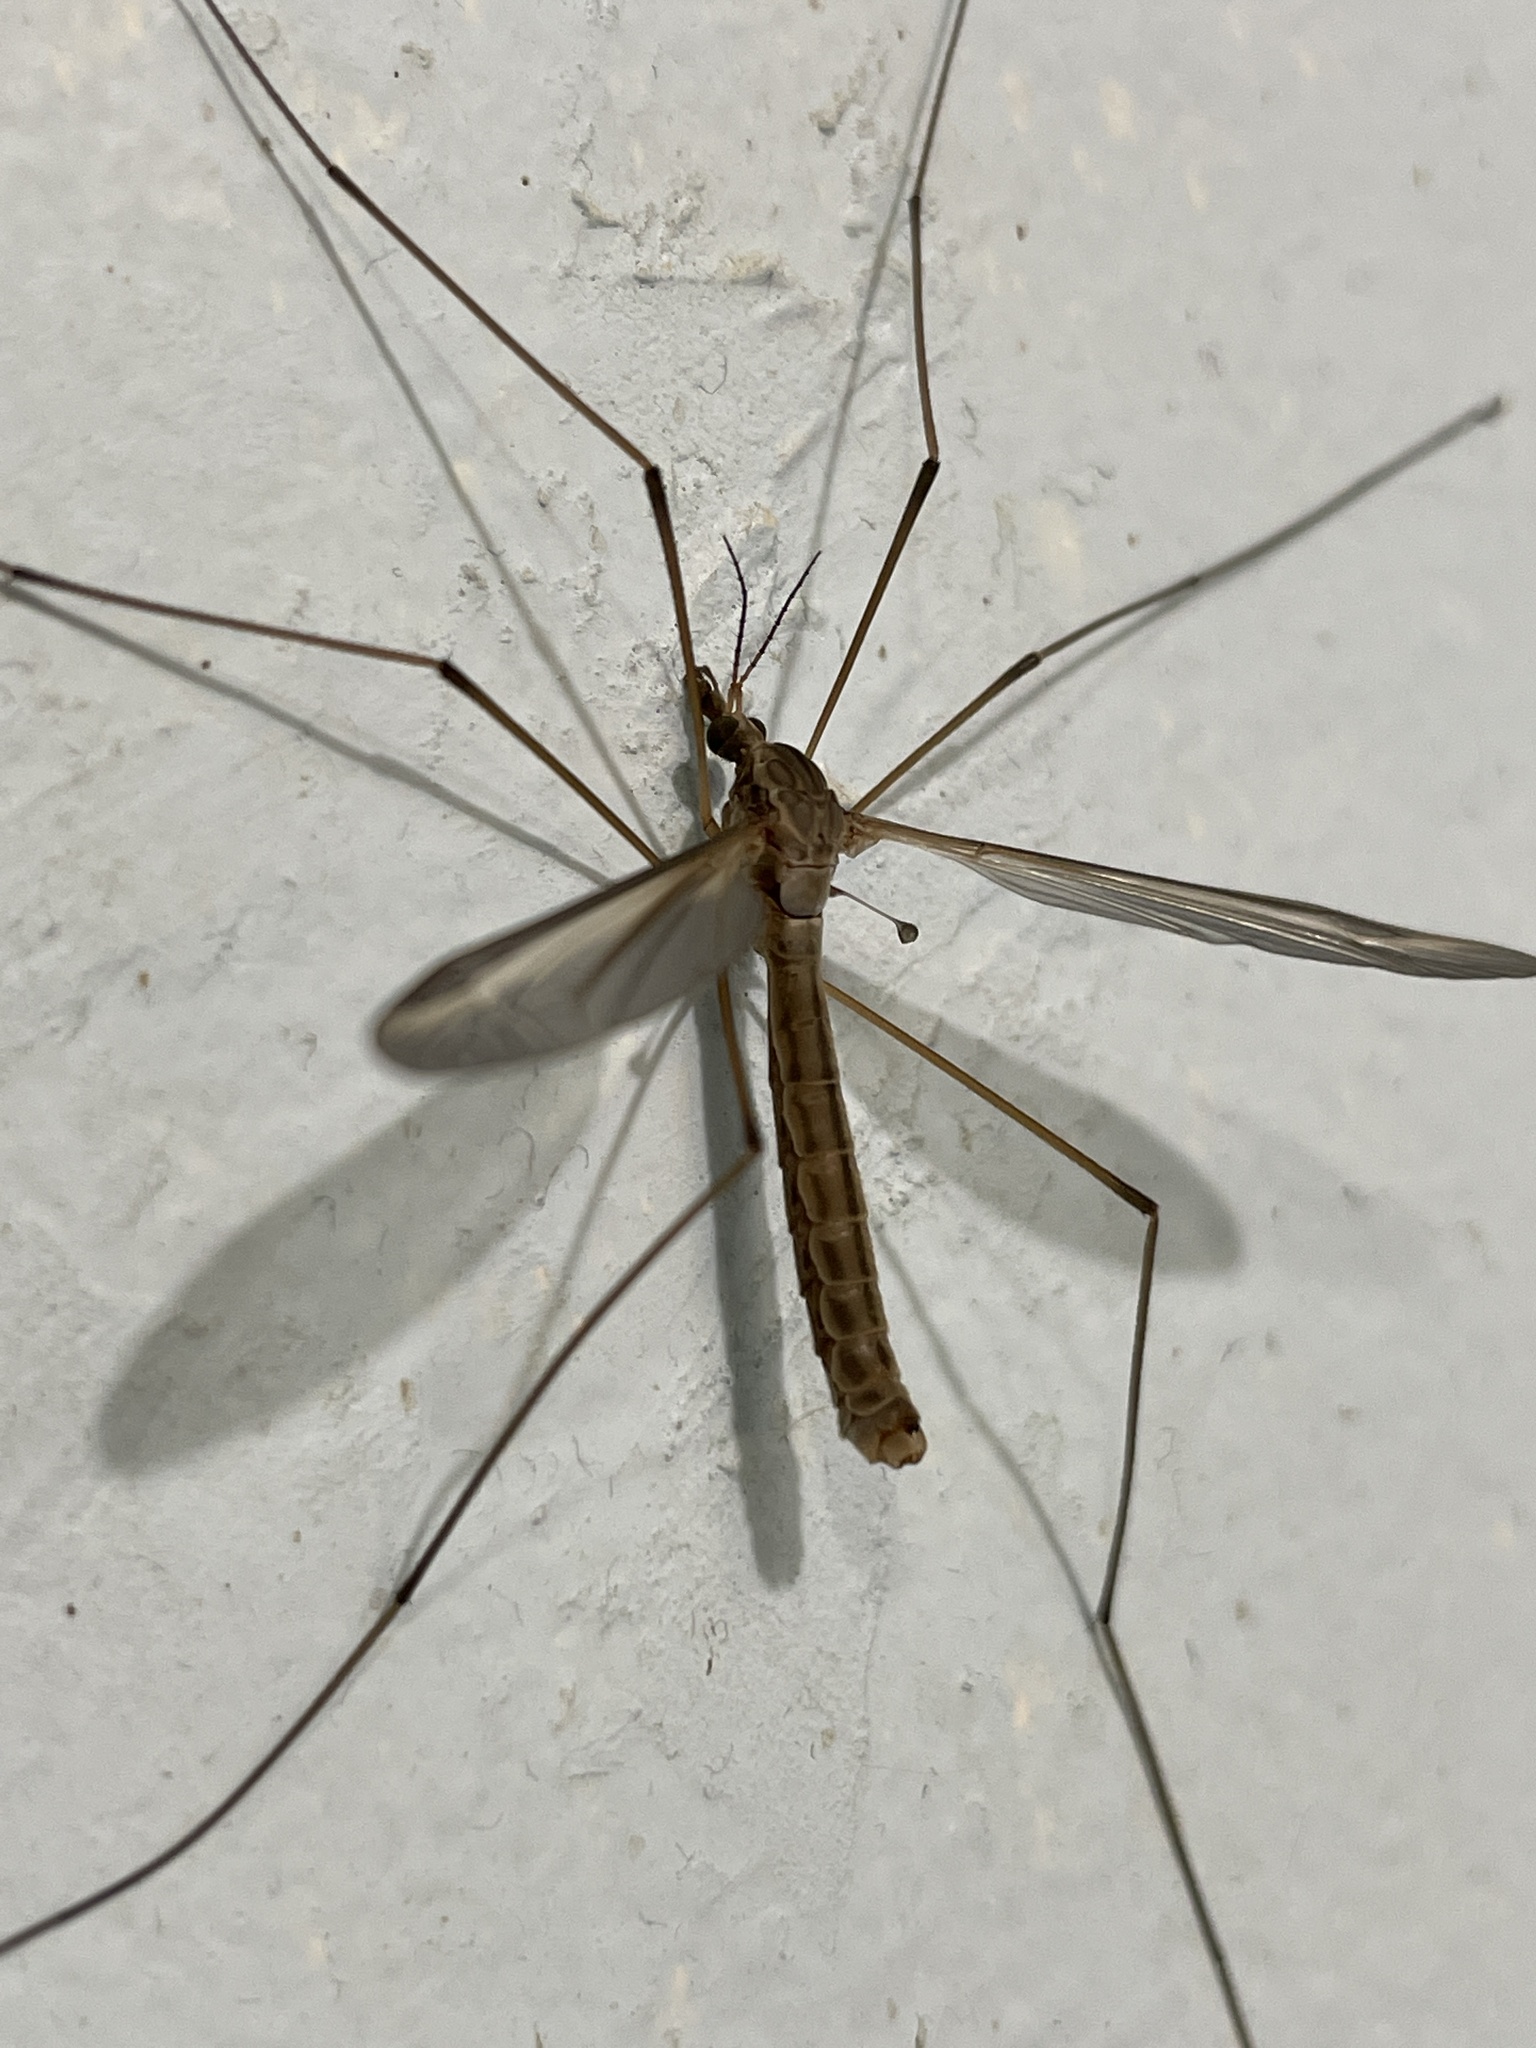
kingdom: Animalia
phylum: Arthropoda
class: Insecta
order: Diptera
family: Tipulidae
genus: Tipula
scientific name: Tipula oleracea
